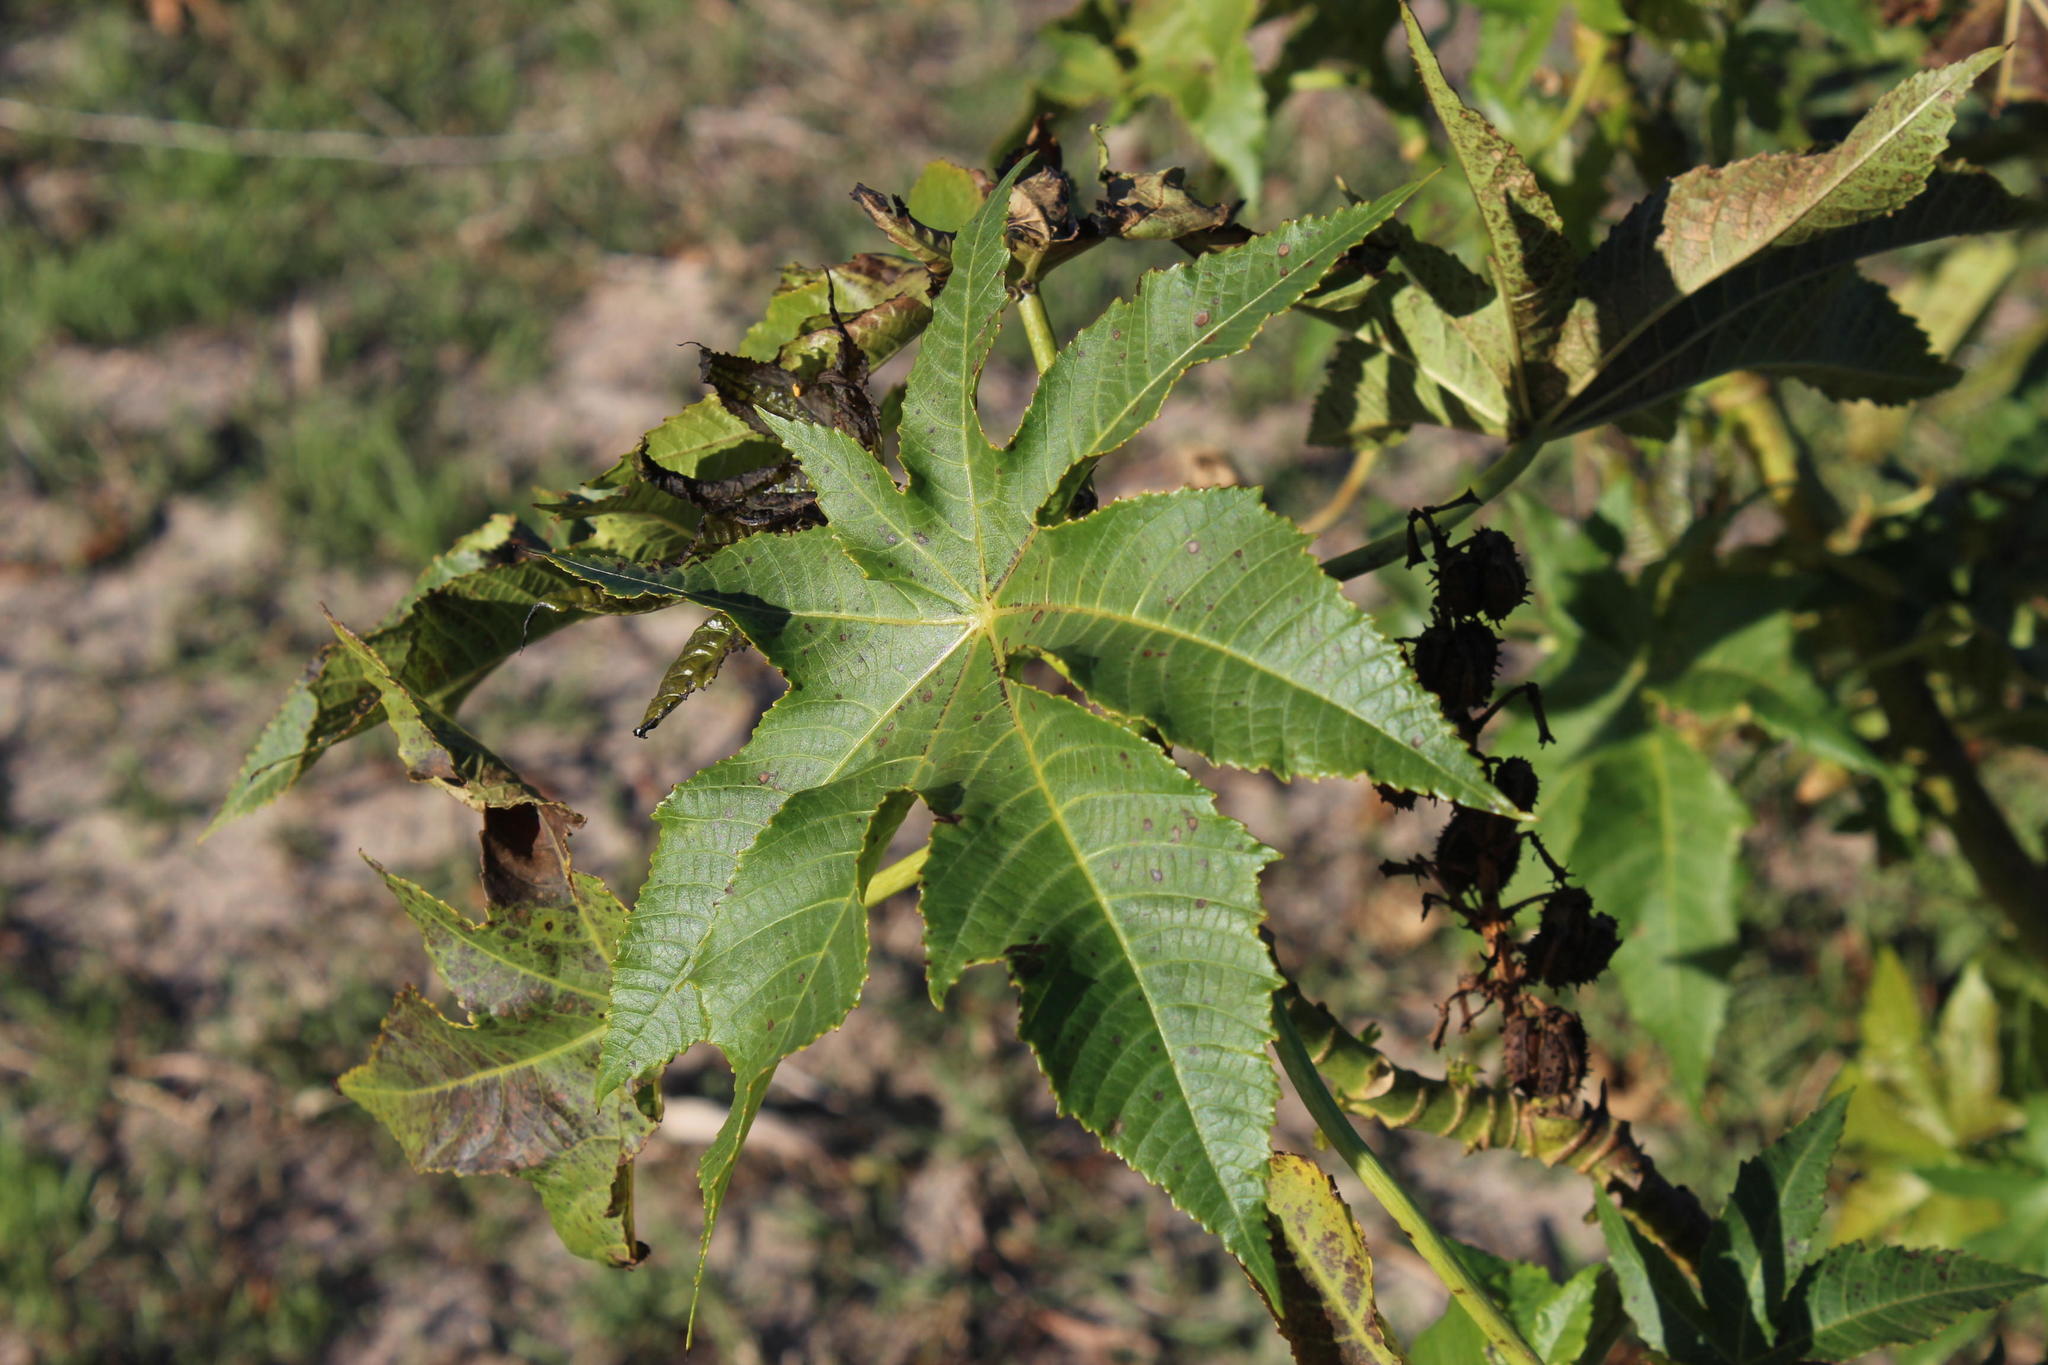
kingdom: Plantae
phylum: Tracheophyta
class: Magnoliopsida
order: Malpighiales
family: Euphorbiaceae
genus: Ricinus
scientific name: Ricinus communis
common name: Castor-oil-plant
